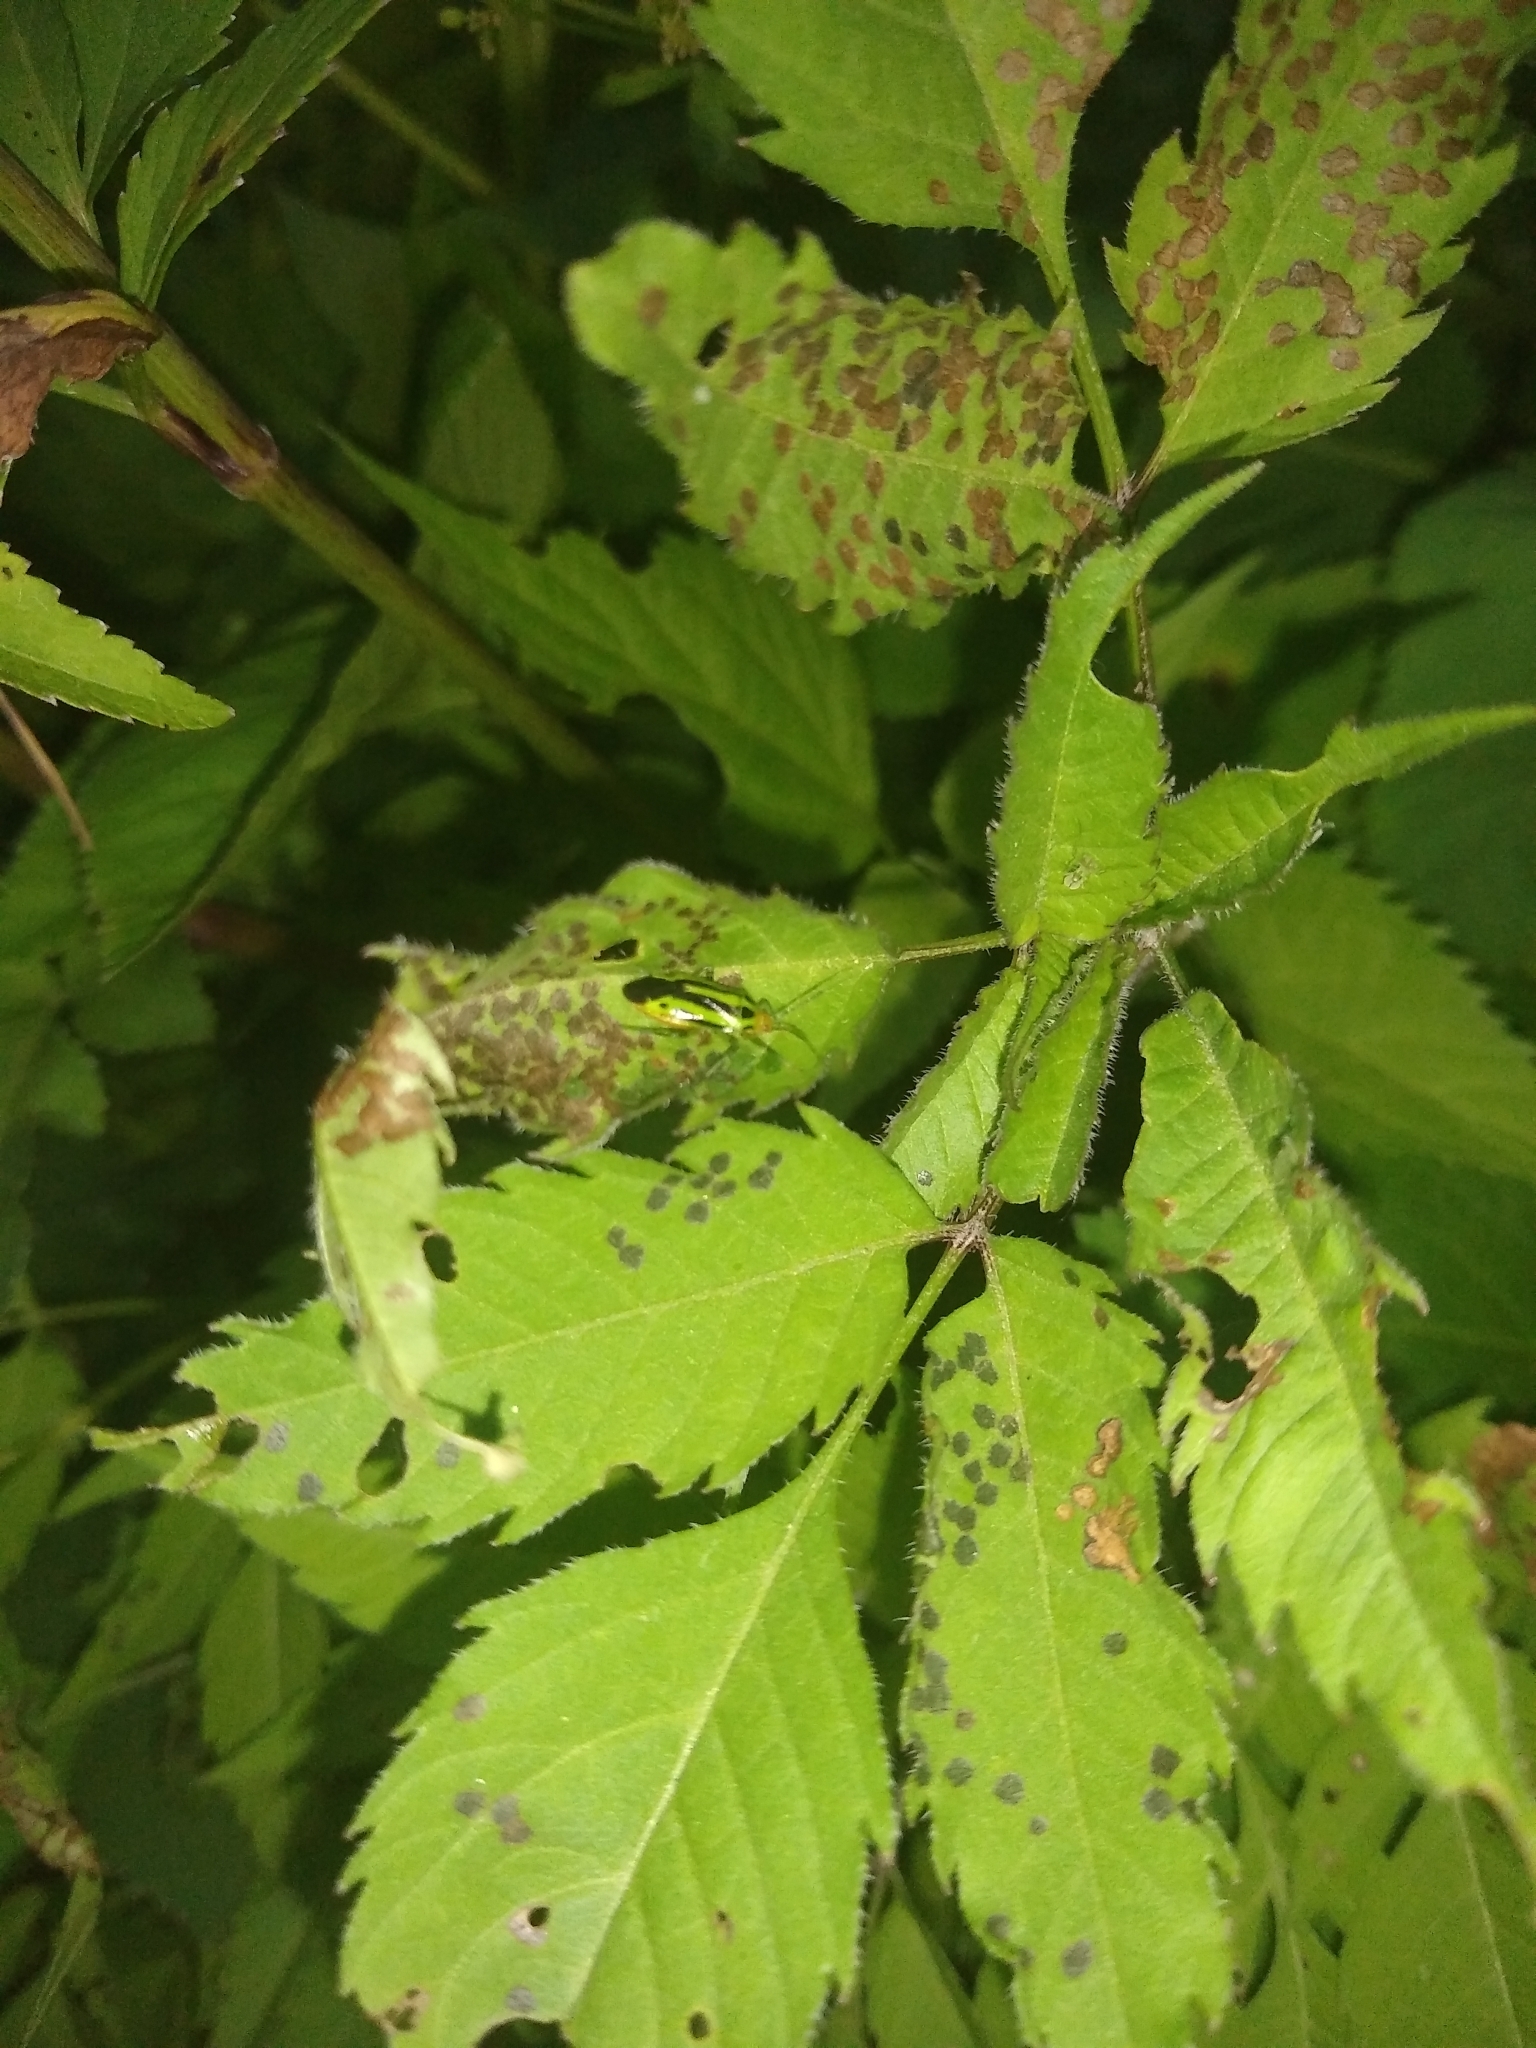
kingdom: Animalia
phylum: Arthropoda
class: Insecta
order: Hemiptera
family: Miridae
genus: Poecilocapsus
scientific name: Poecilocapsus lineatus
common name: Four-lined plant bug
